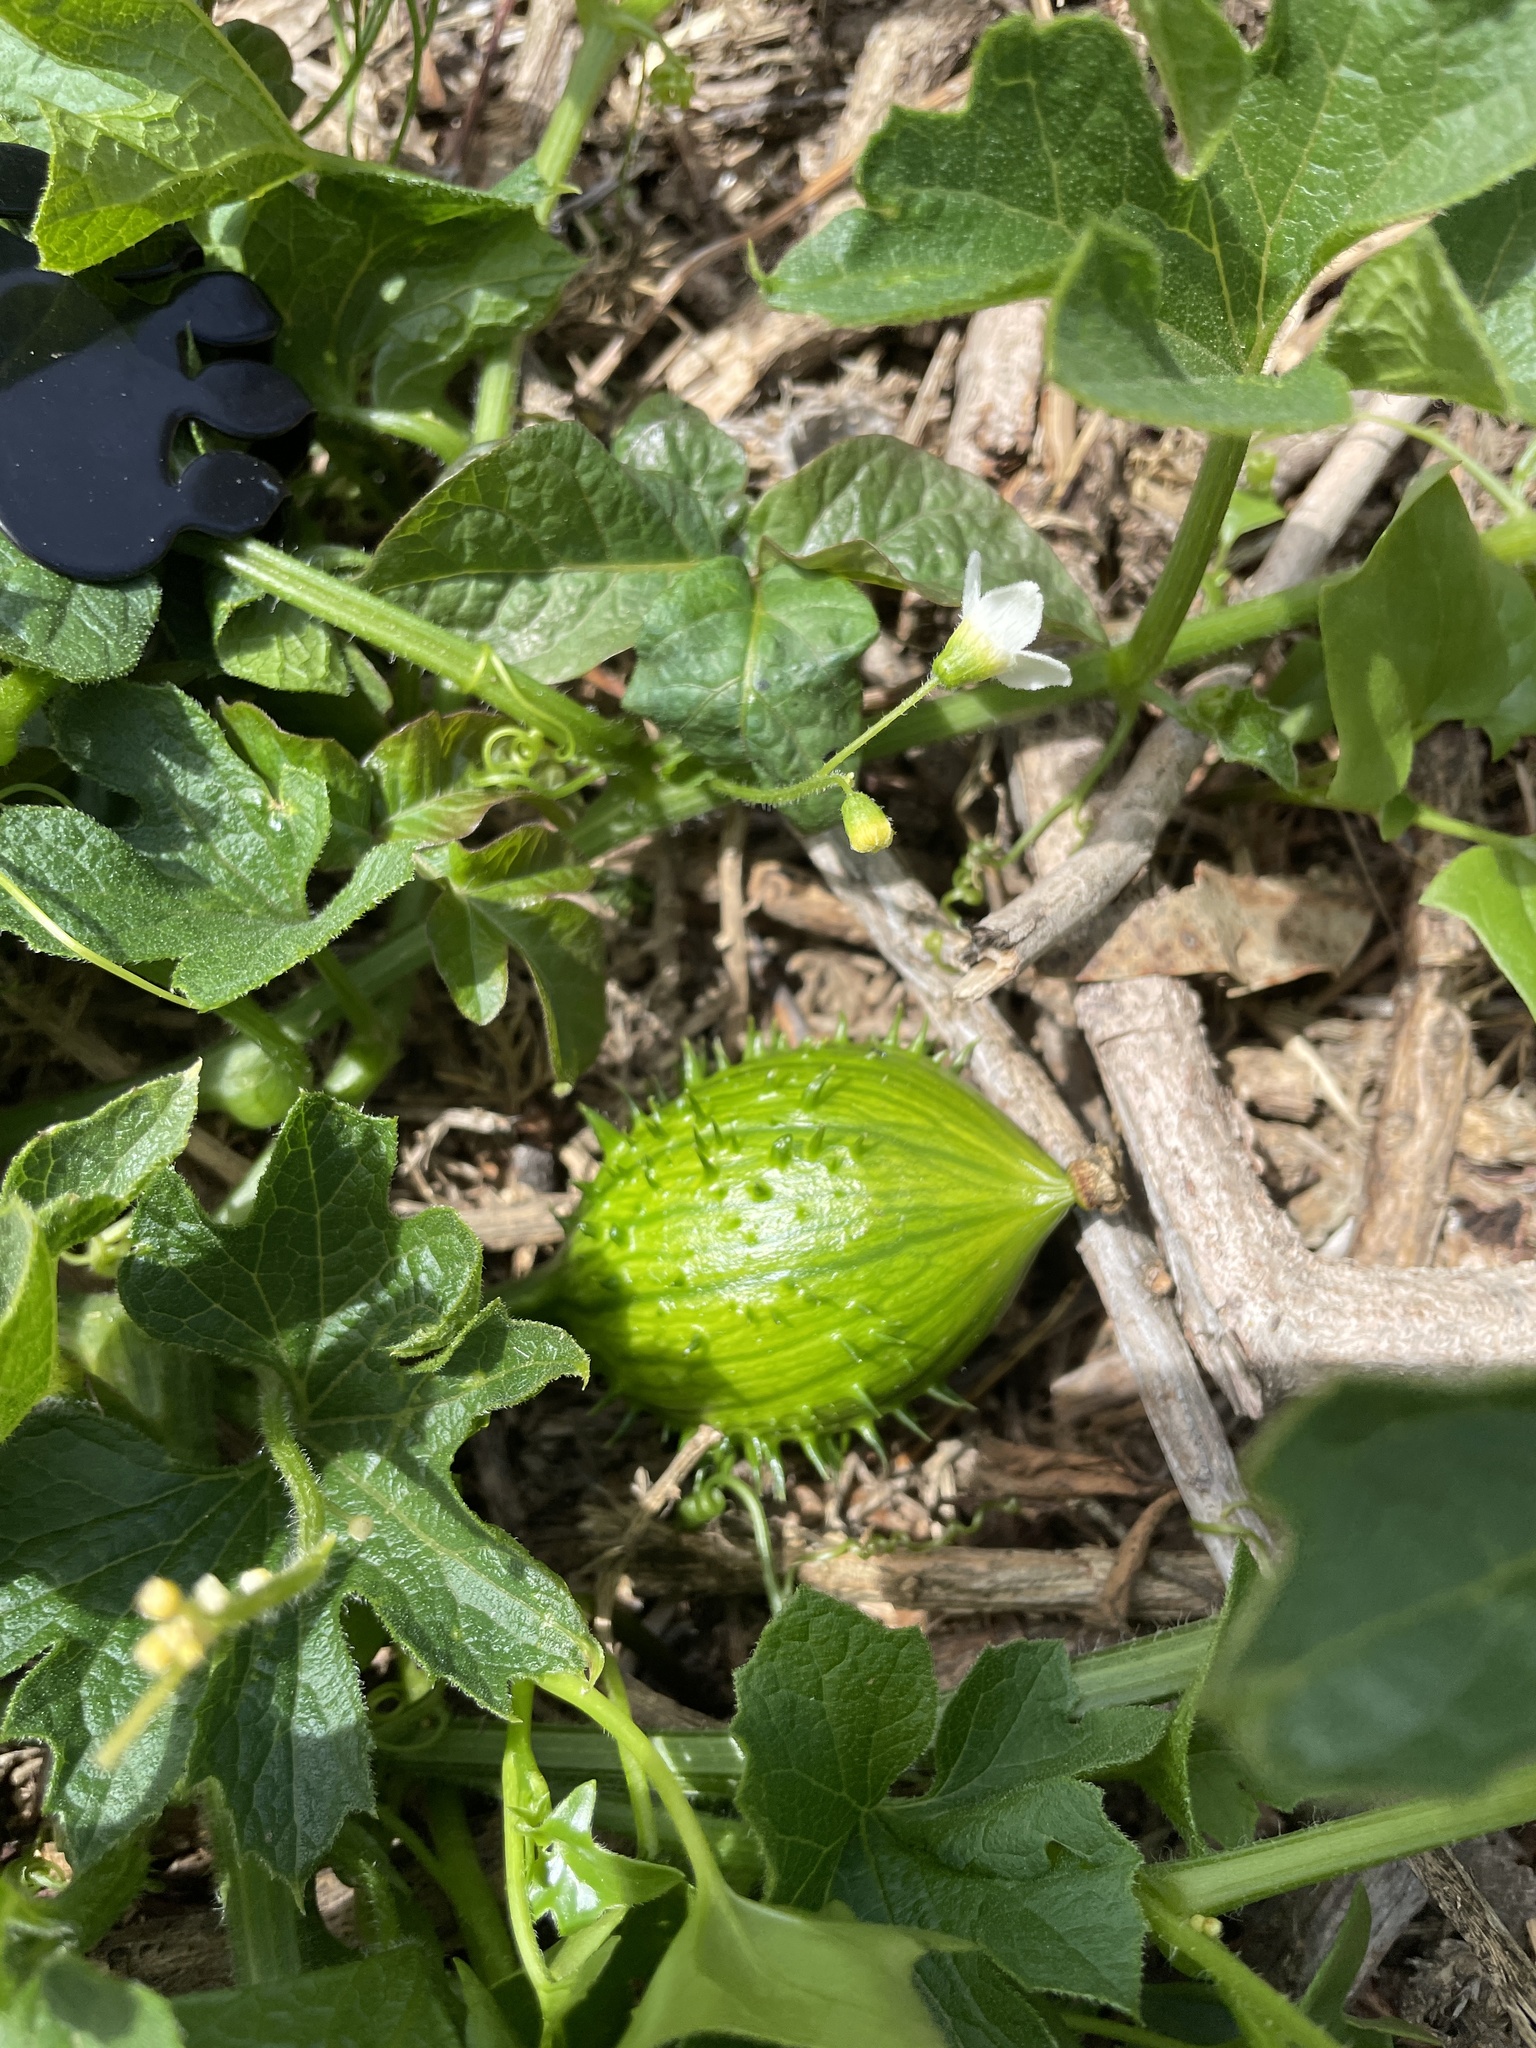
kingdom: Plantae
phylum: Tracheophyta
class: Magnoliopsida
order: Cucurbitales
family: Cucurbitaceae
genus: Marah
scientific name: Marah oregana
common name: Coastal manroot
